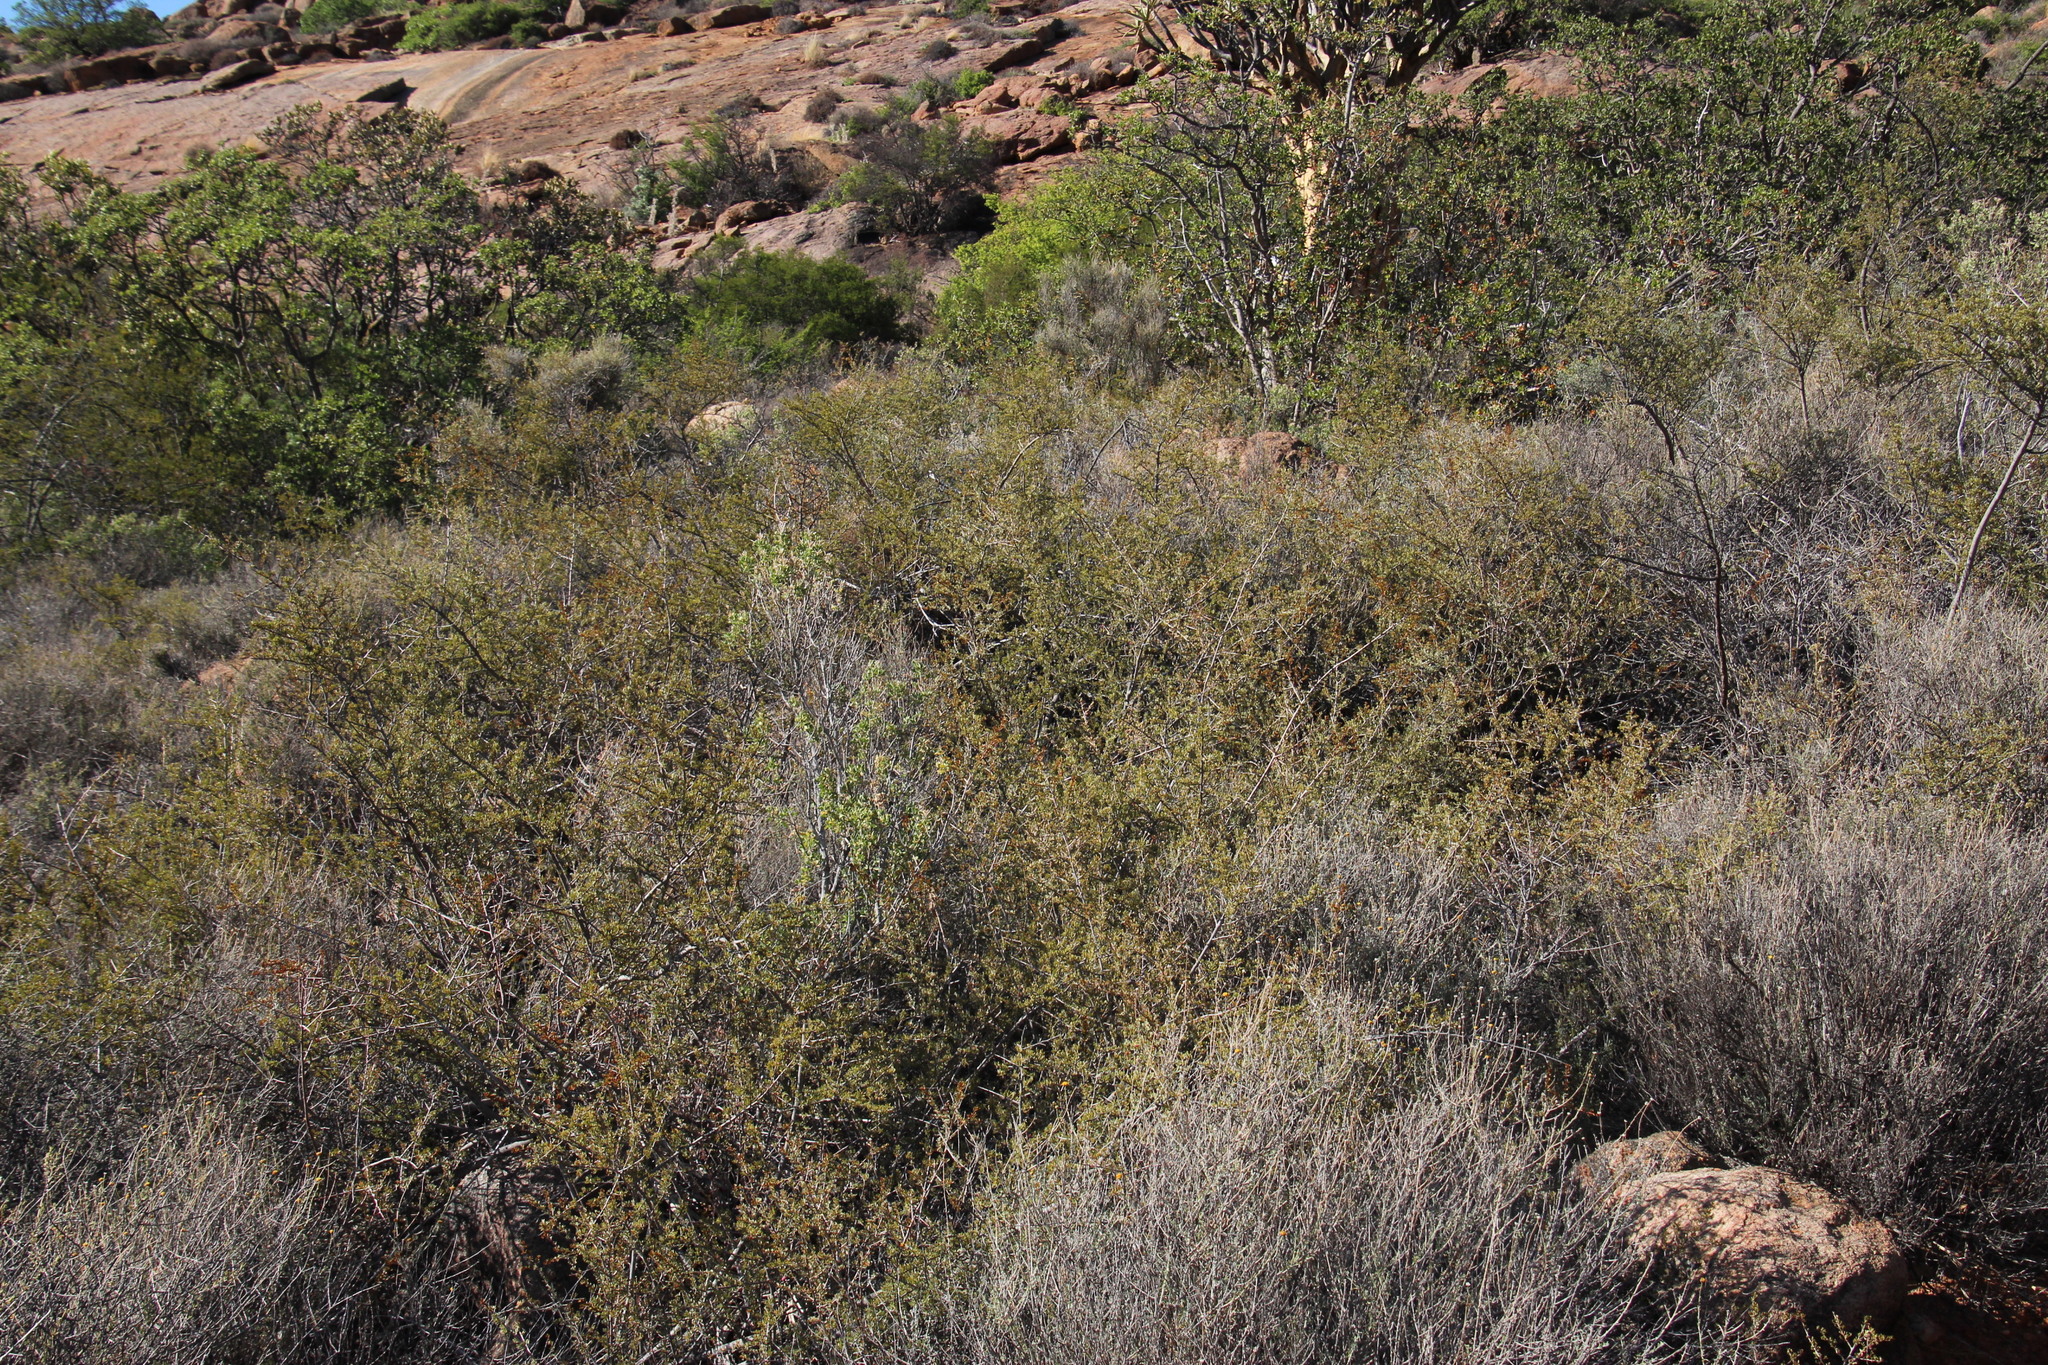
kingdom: Plantae
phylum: Tracheophyta
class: Magnoliopsida
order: Sapindales
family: Anacardiaceae
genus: Searsia
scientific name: Searsia horrida
